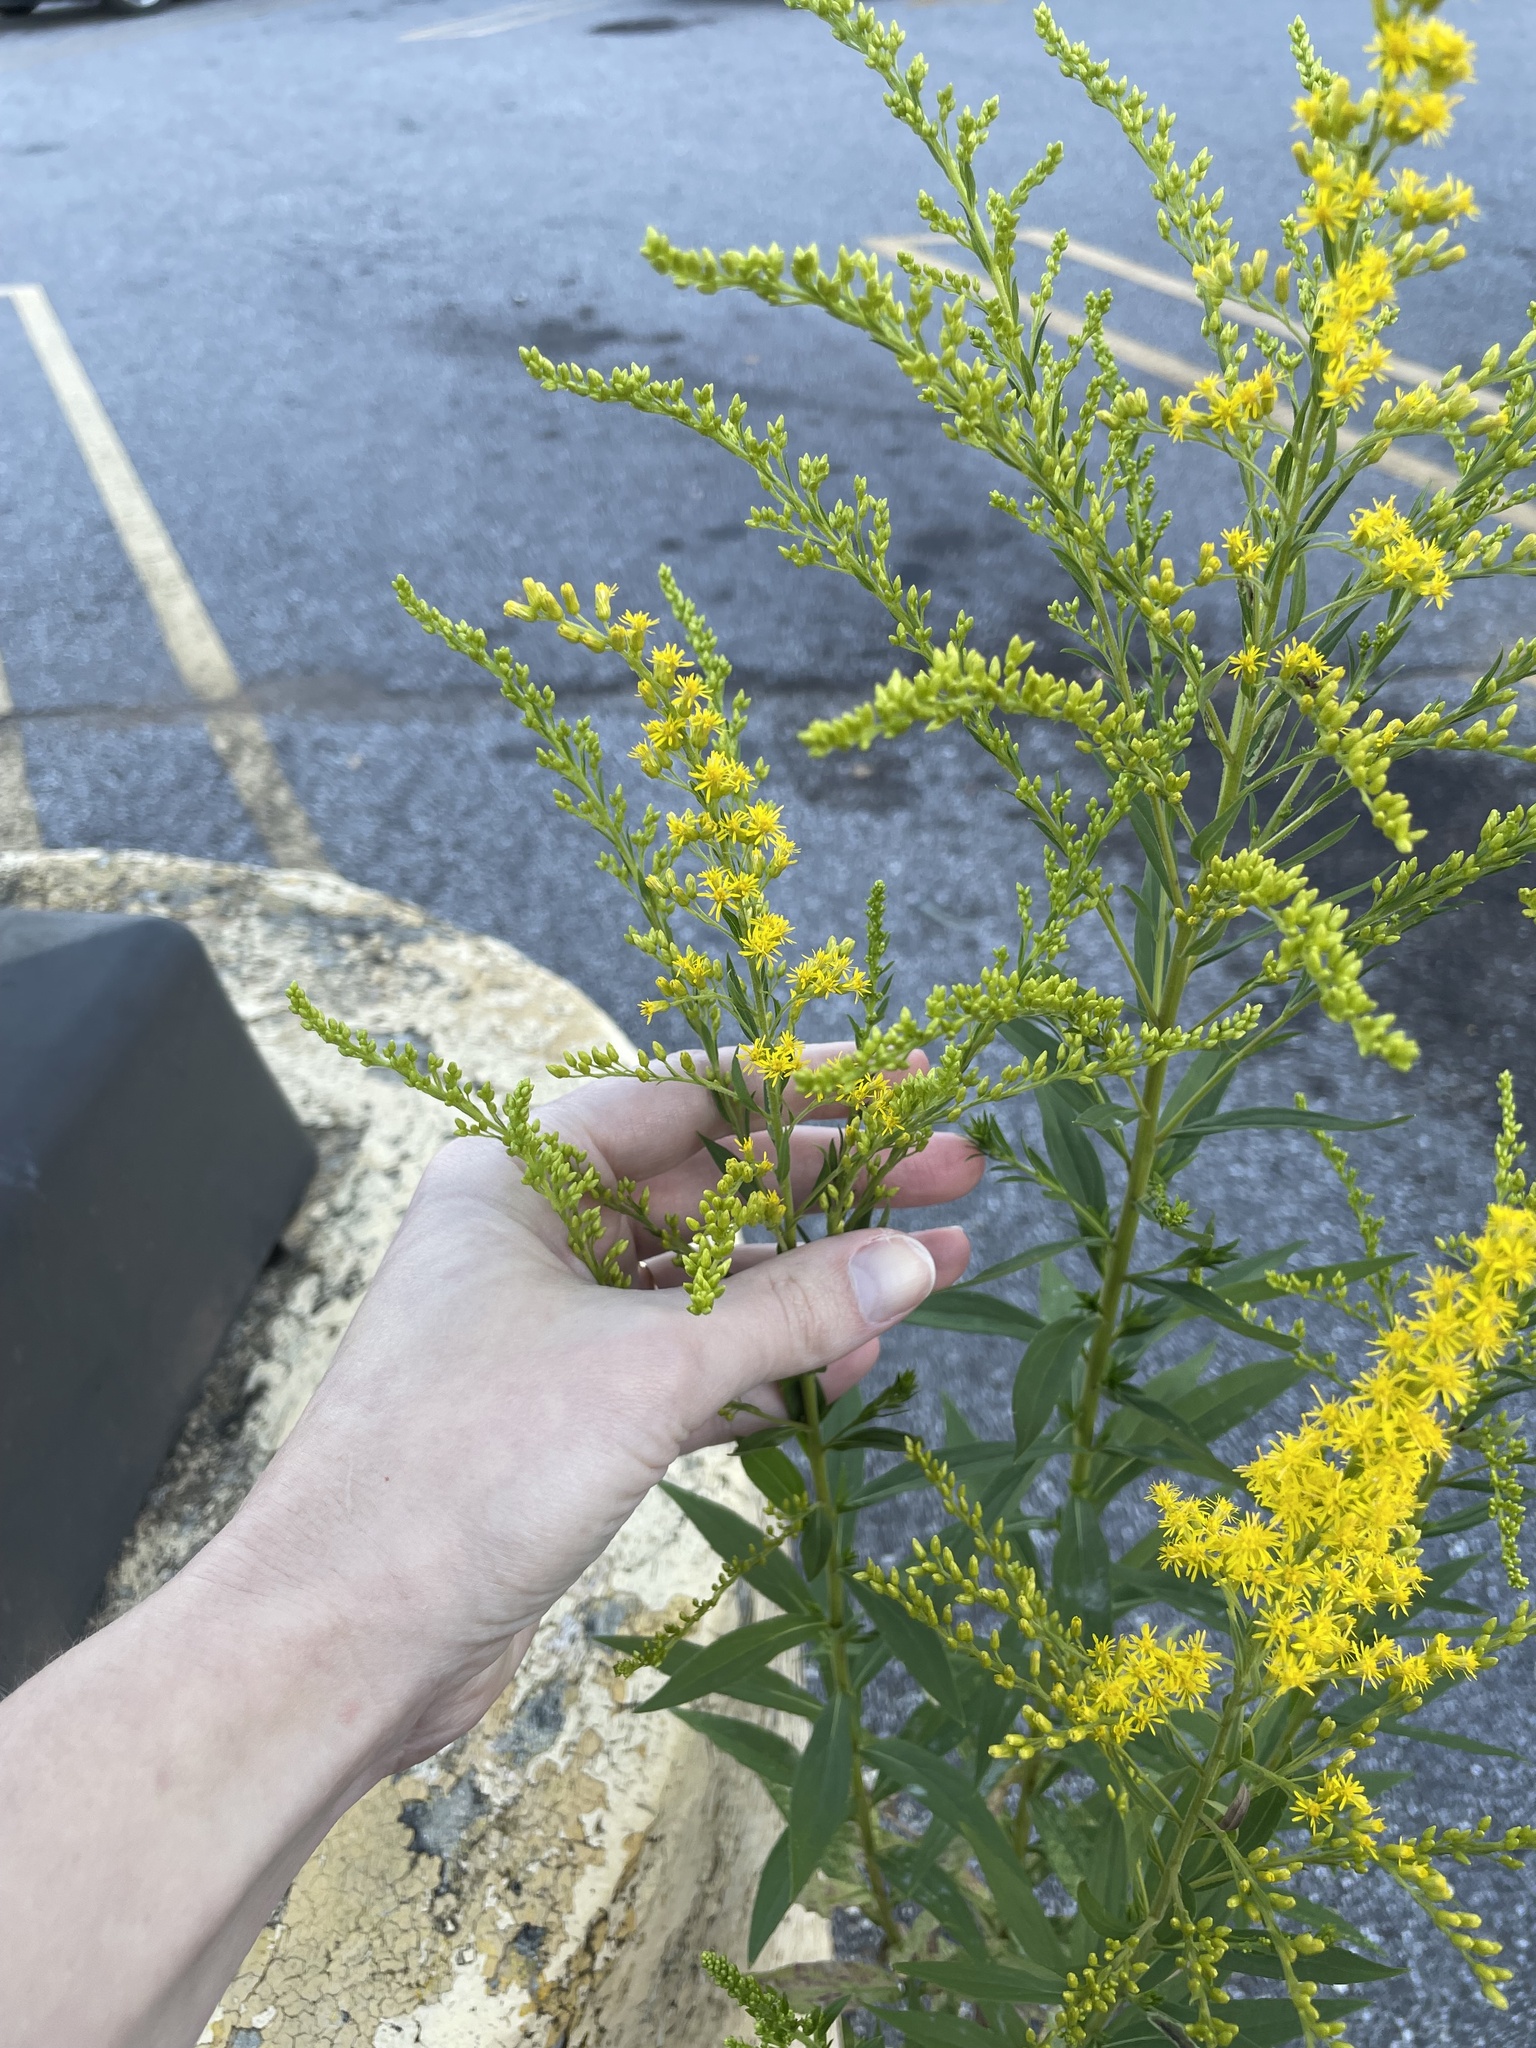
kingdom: Plantae
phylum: Tracheophyta
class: Magnoliopsida
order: Asterales
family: Asteraceae
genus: Solidago
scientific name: Solidago altissima
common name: Late goldenrod
